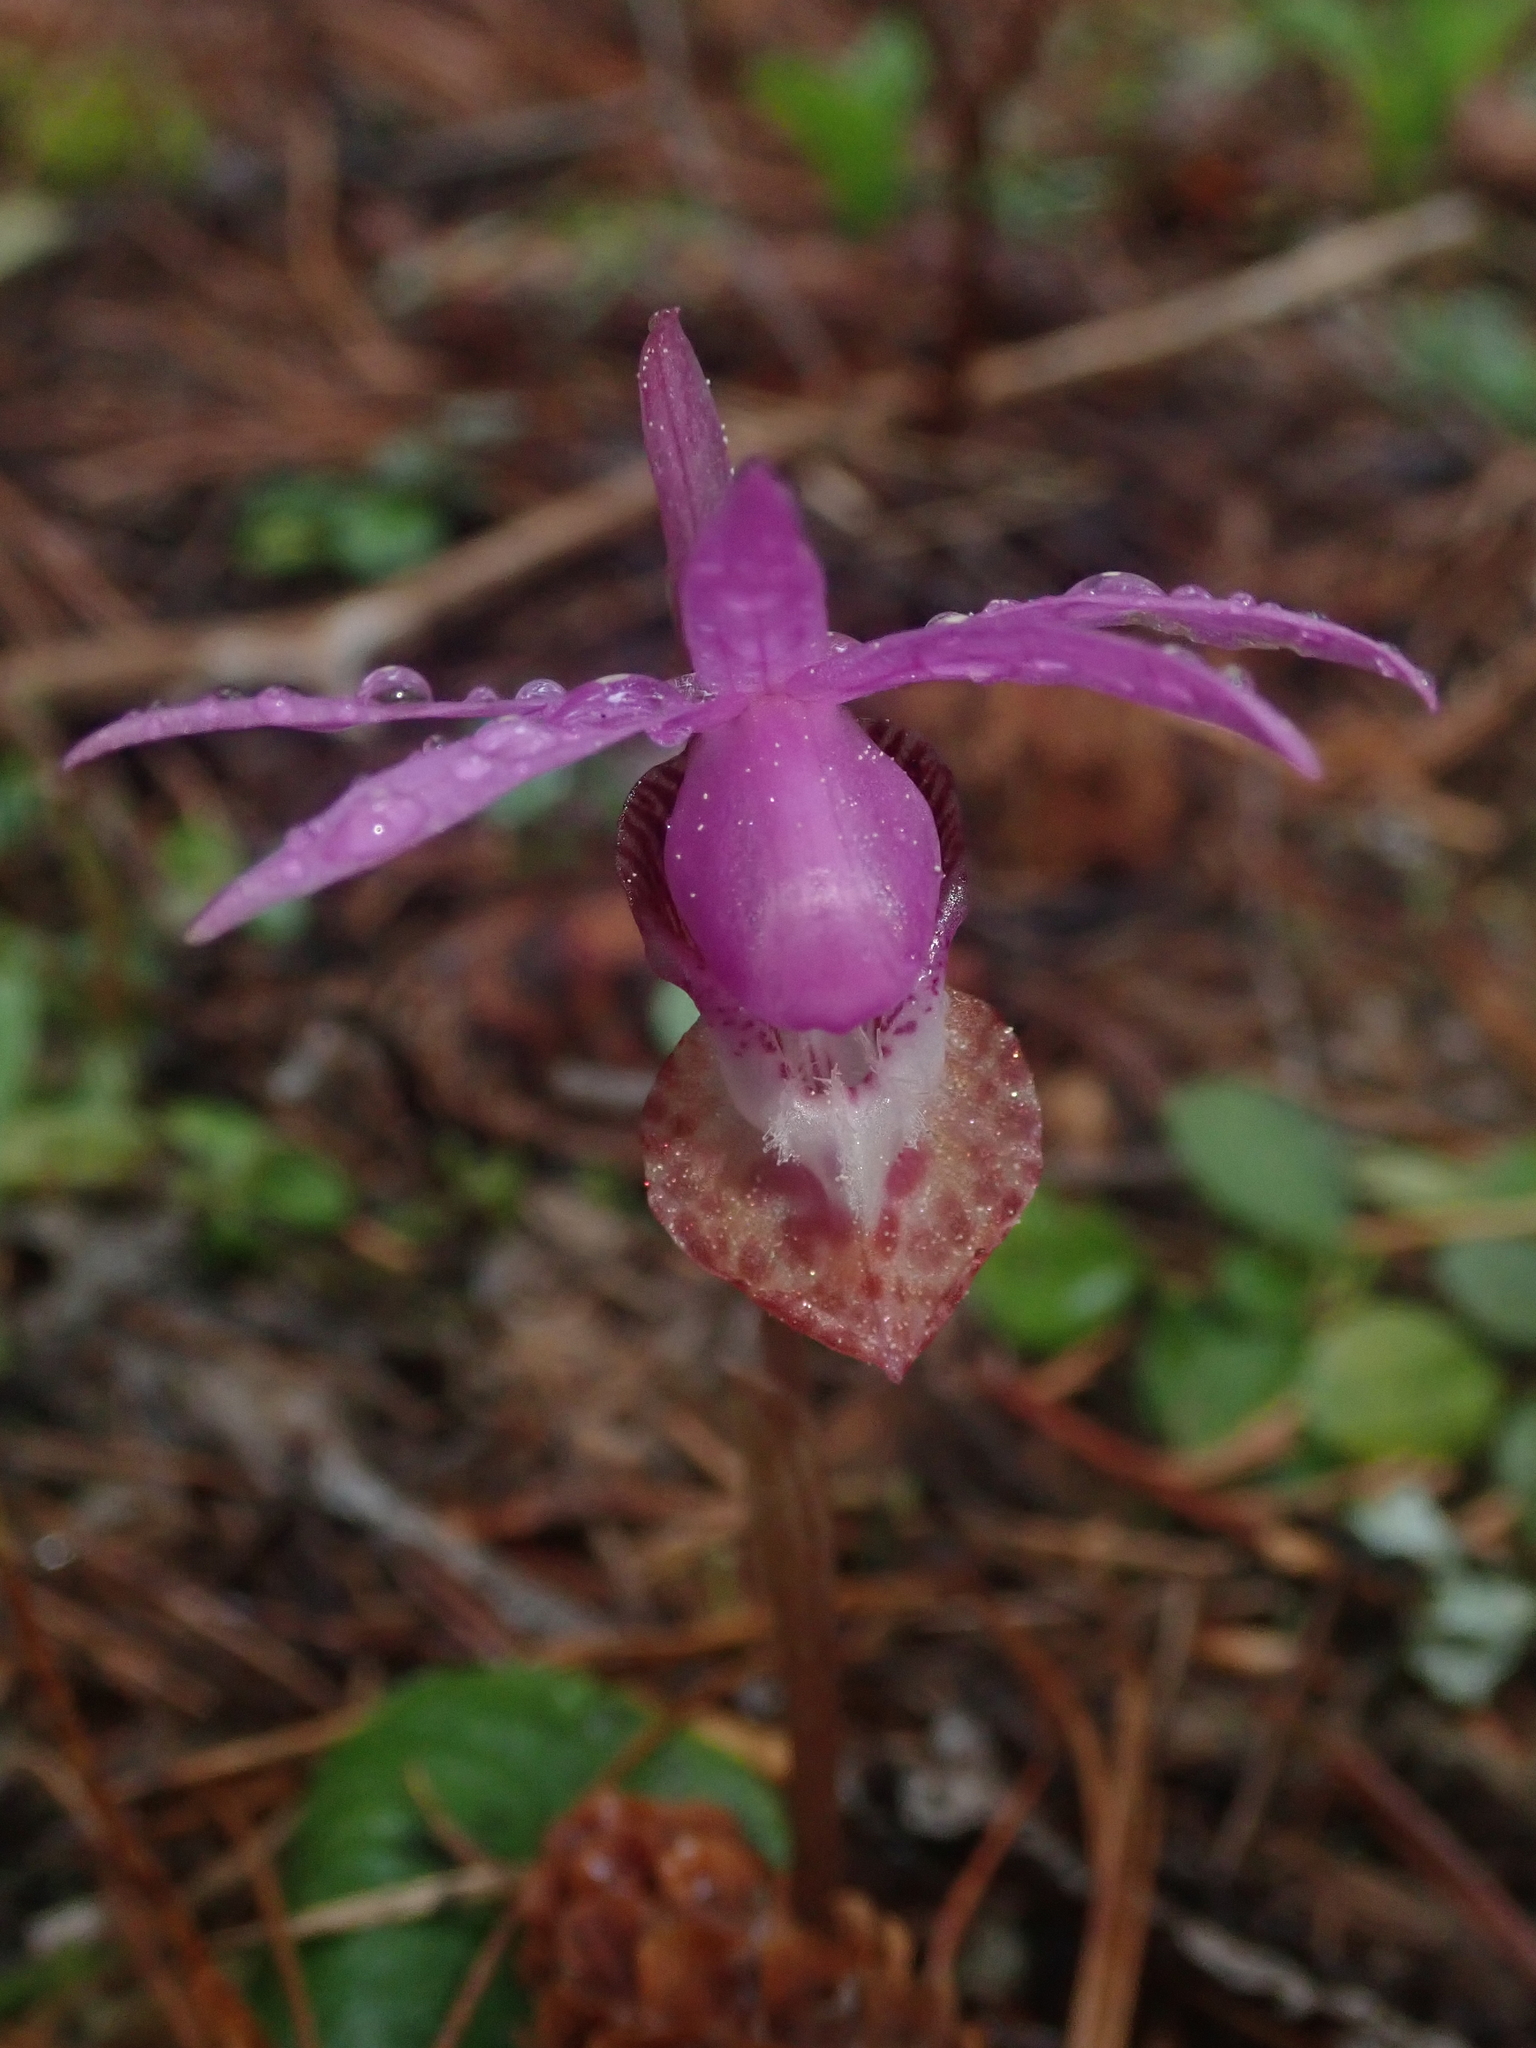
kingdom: Plantae
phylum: Tracheophyta
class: Liliopsida
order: Asparagales
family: Orchidaceae
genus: Calypso
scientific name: Calypso bulbosa
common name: Calypso
